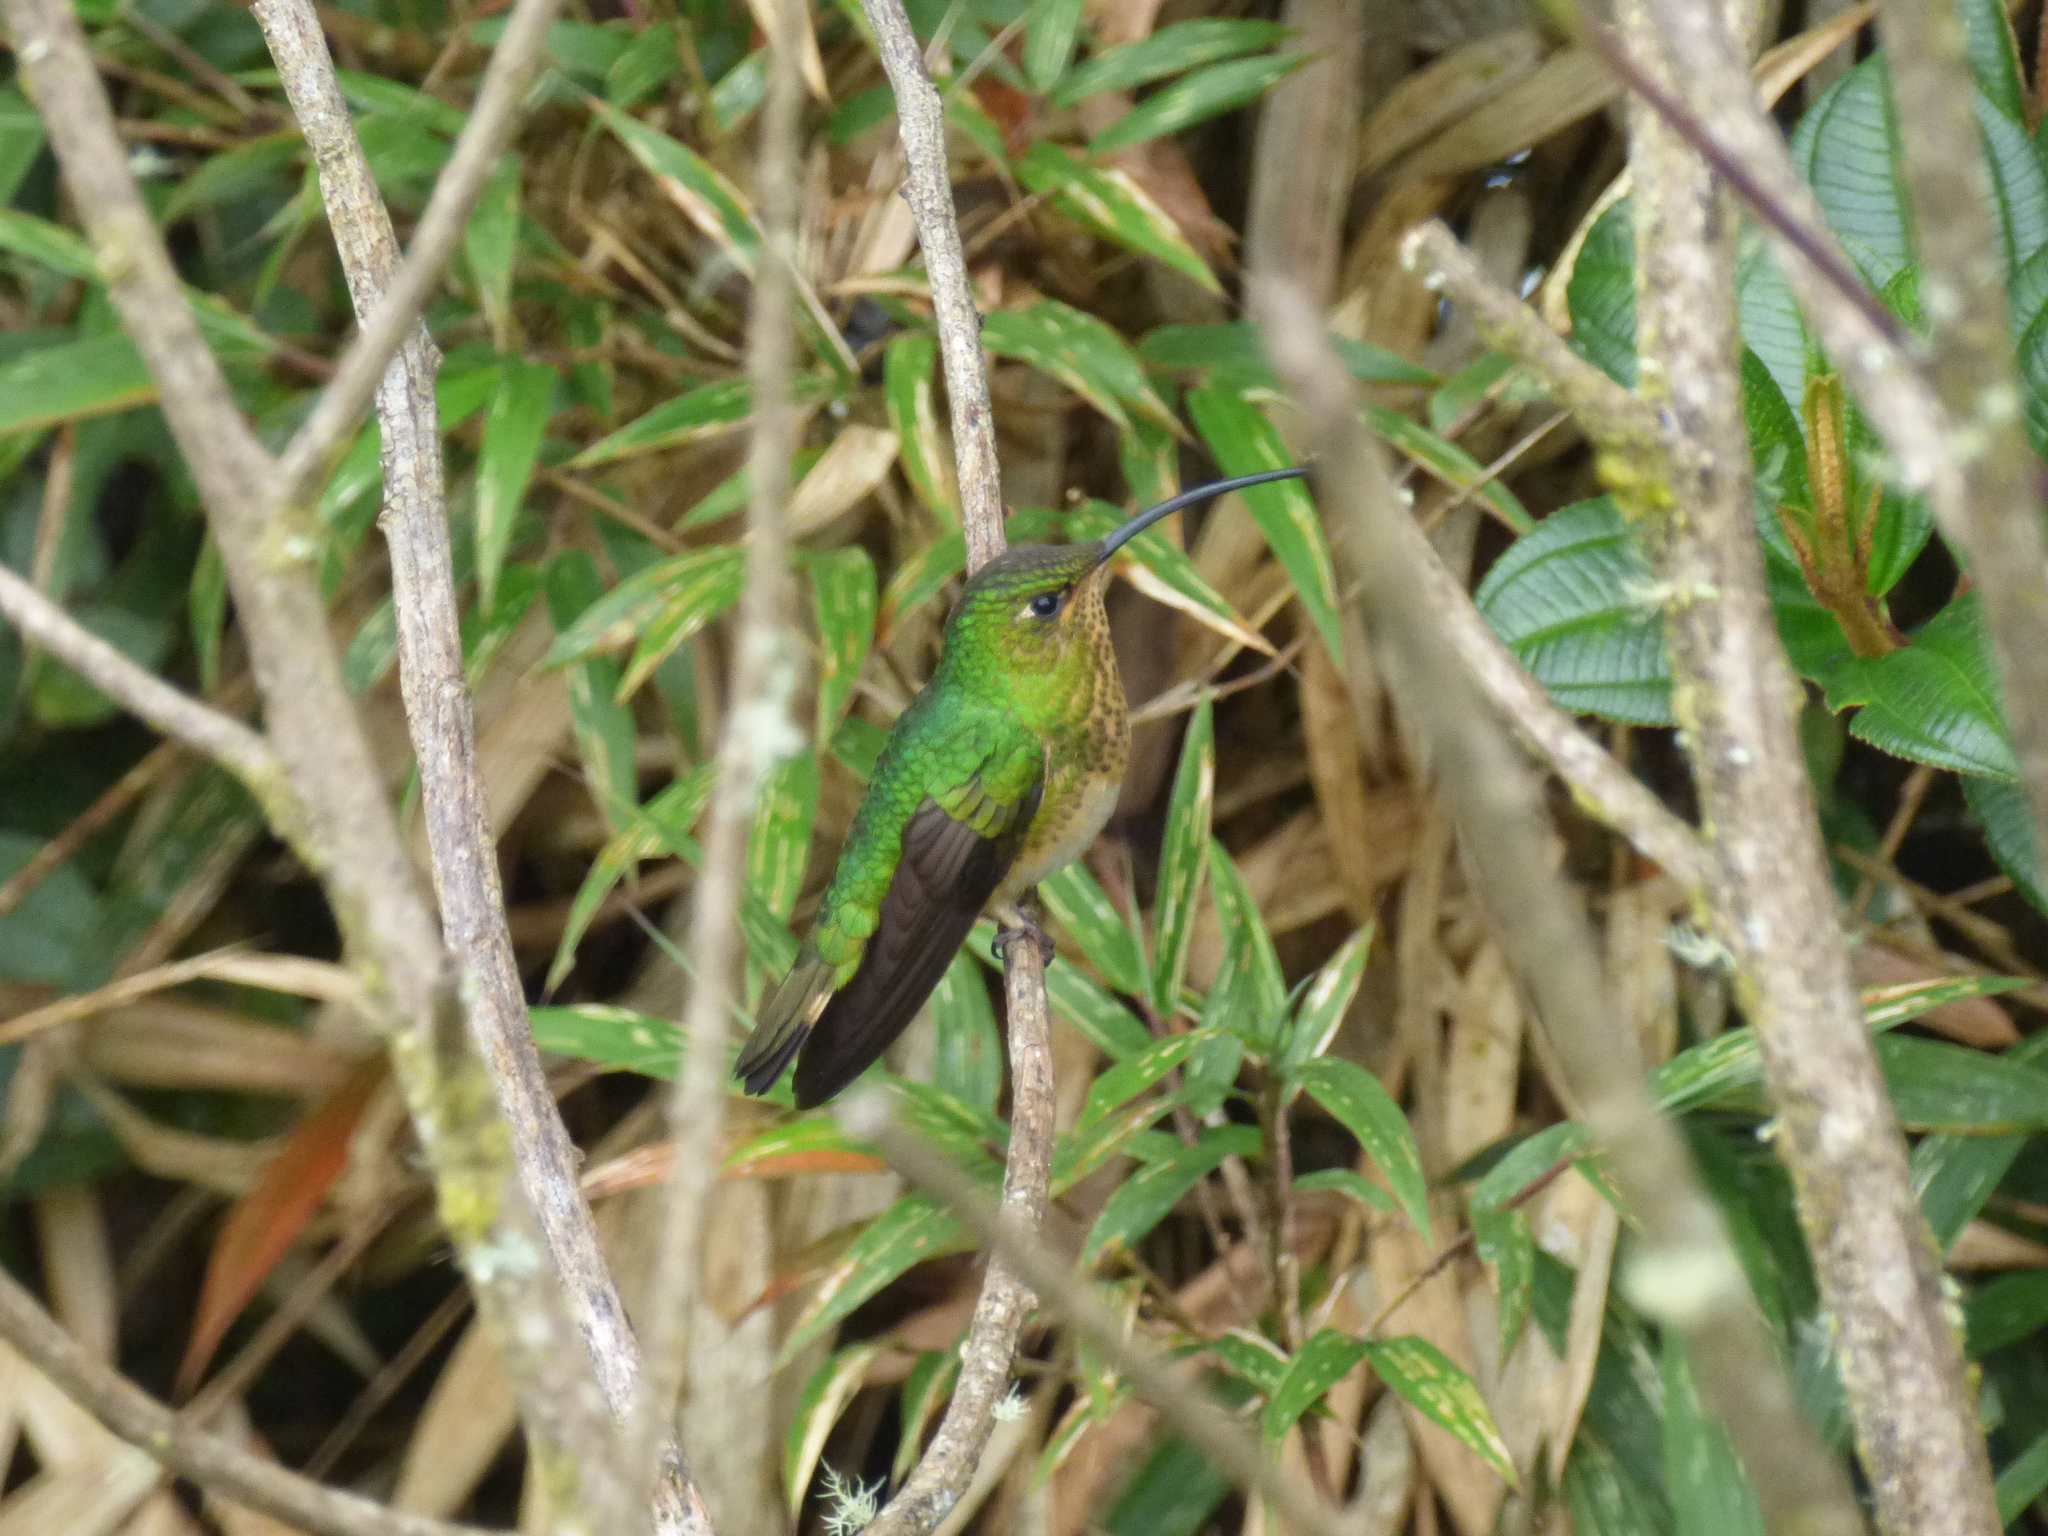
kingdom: Animalia
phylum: Chordata
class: Aves
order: Apodiformes
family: Trochilidae
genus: Lafresnaya
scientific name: Lafresnaya lafresnayi
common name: Mountain velvetbreast
